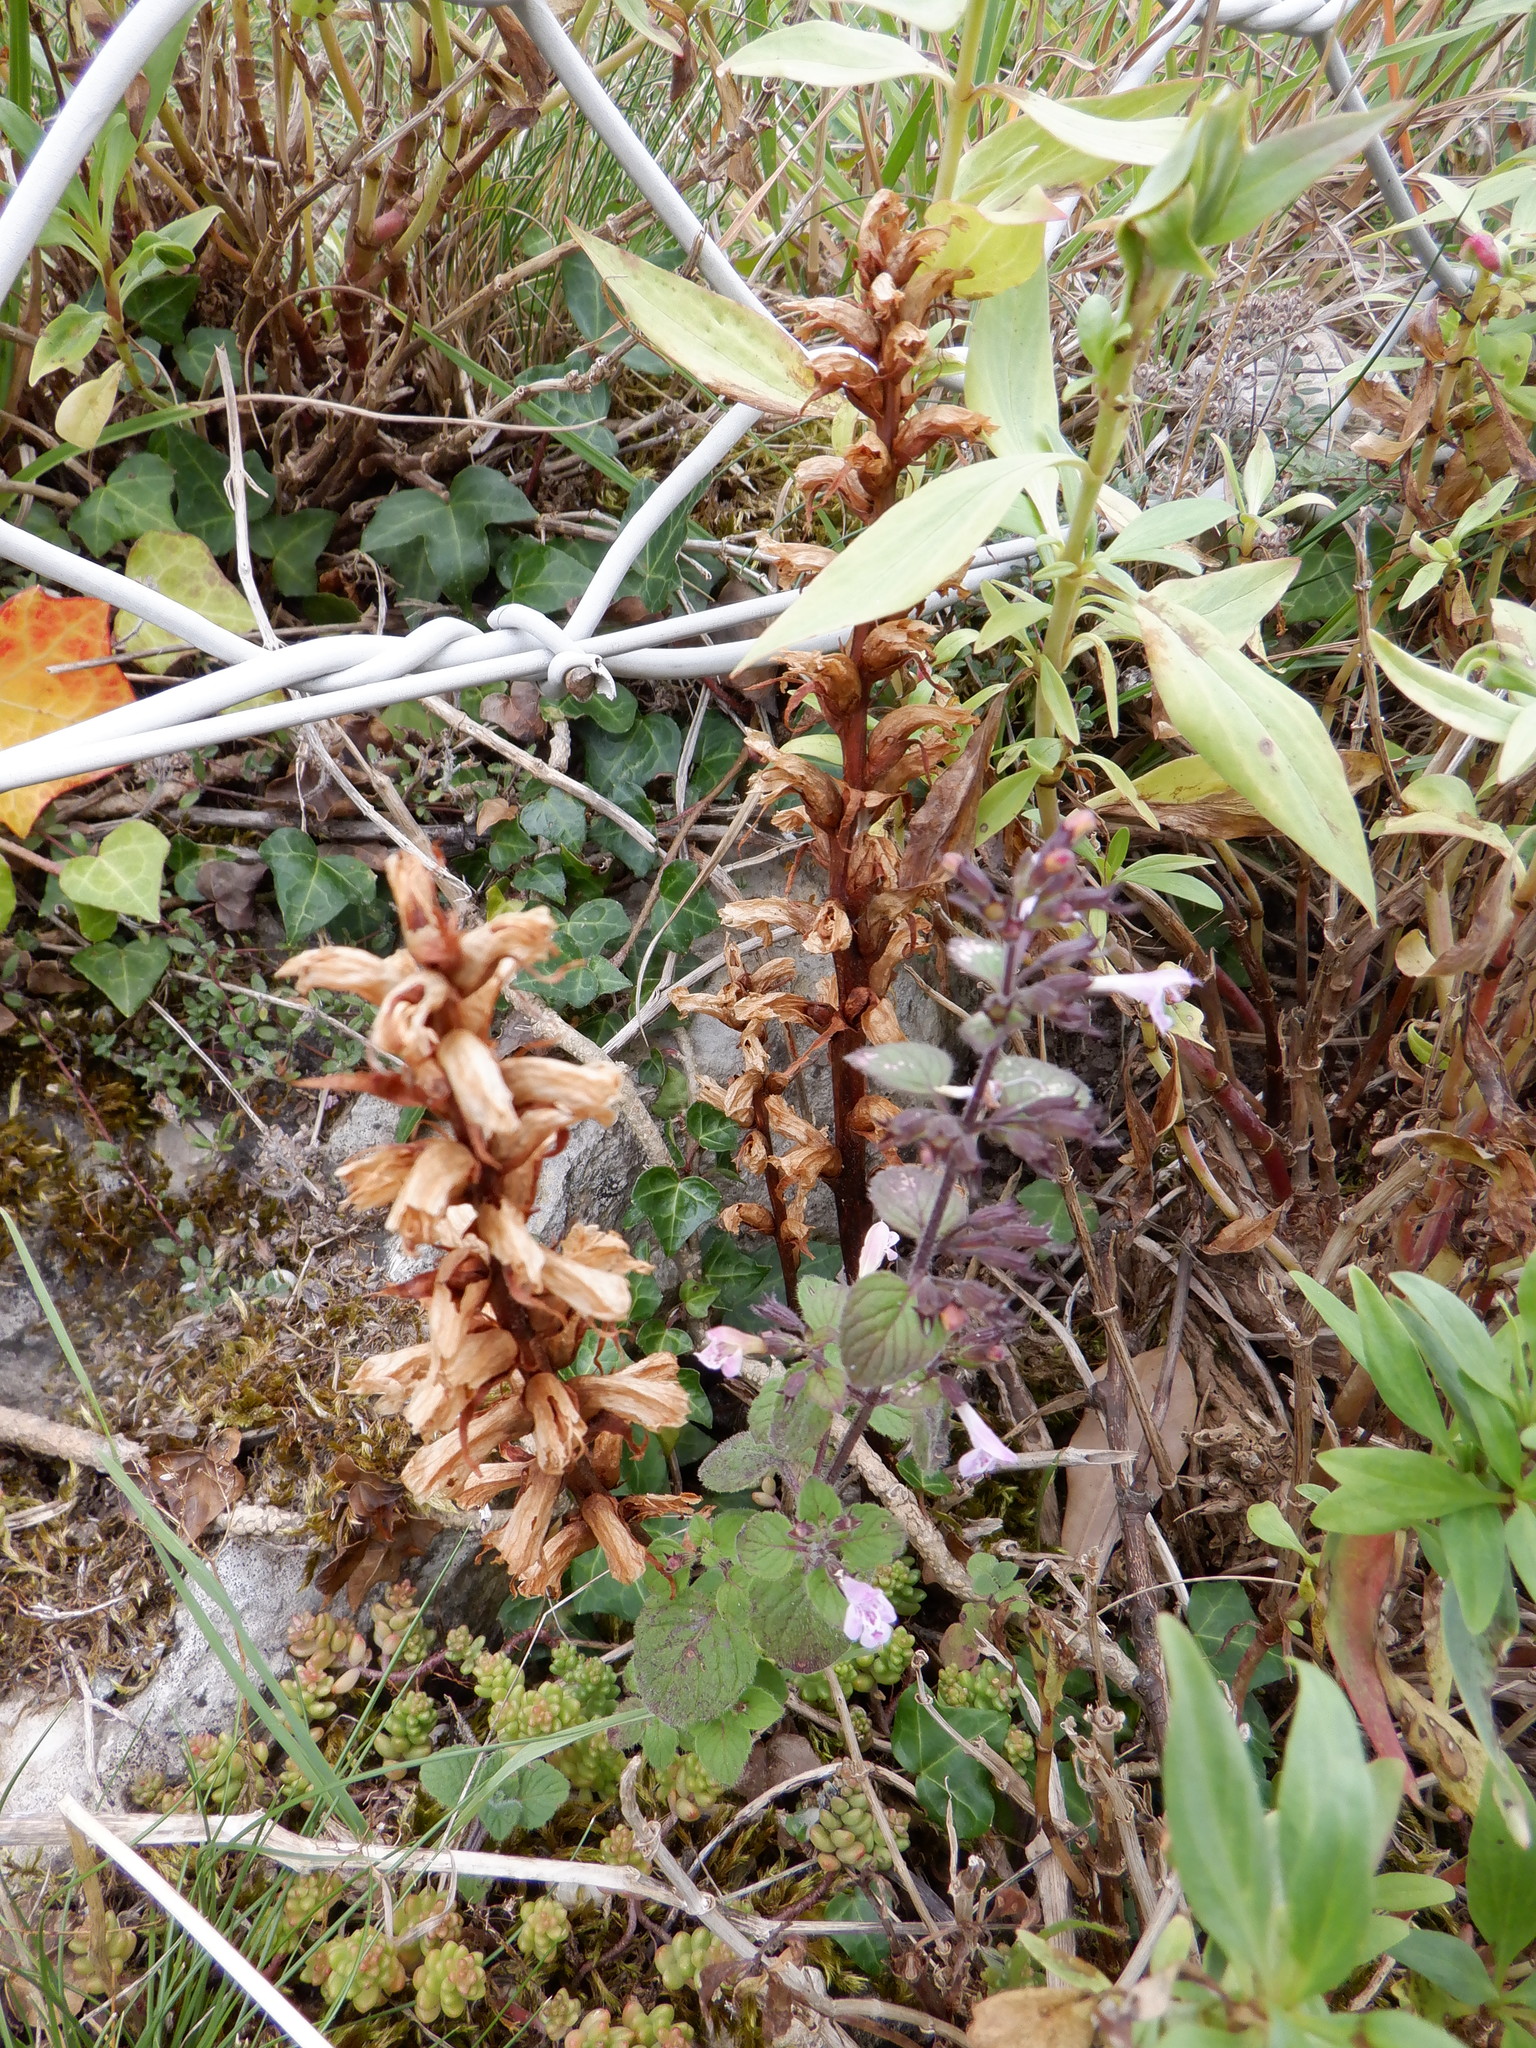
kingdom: Plantae
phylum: Tracheophyta
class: Magnoliopsida
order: Lamiales
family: Orobanchaceae
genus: Orobanche
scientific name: Orobanche hederae
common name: Ivy broomrape
